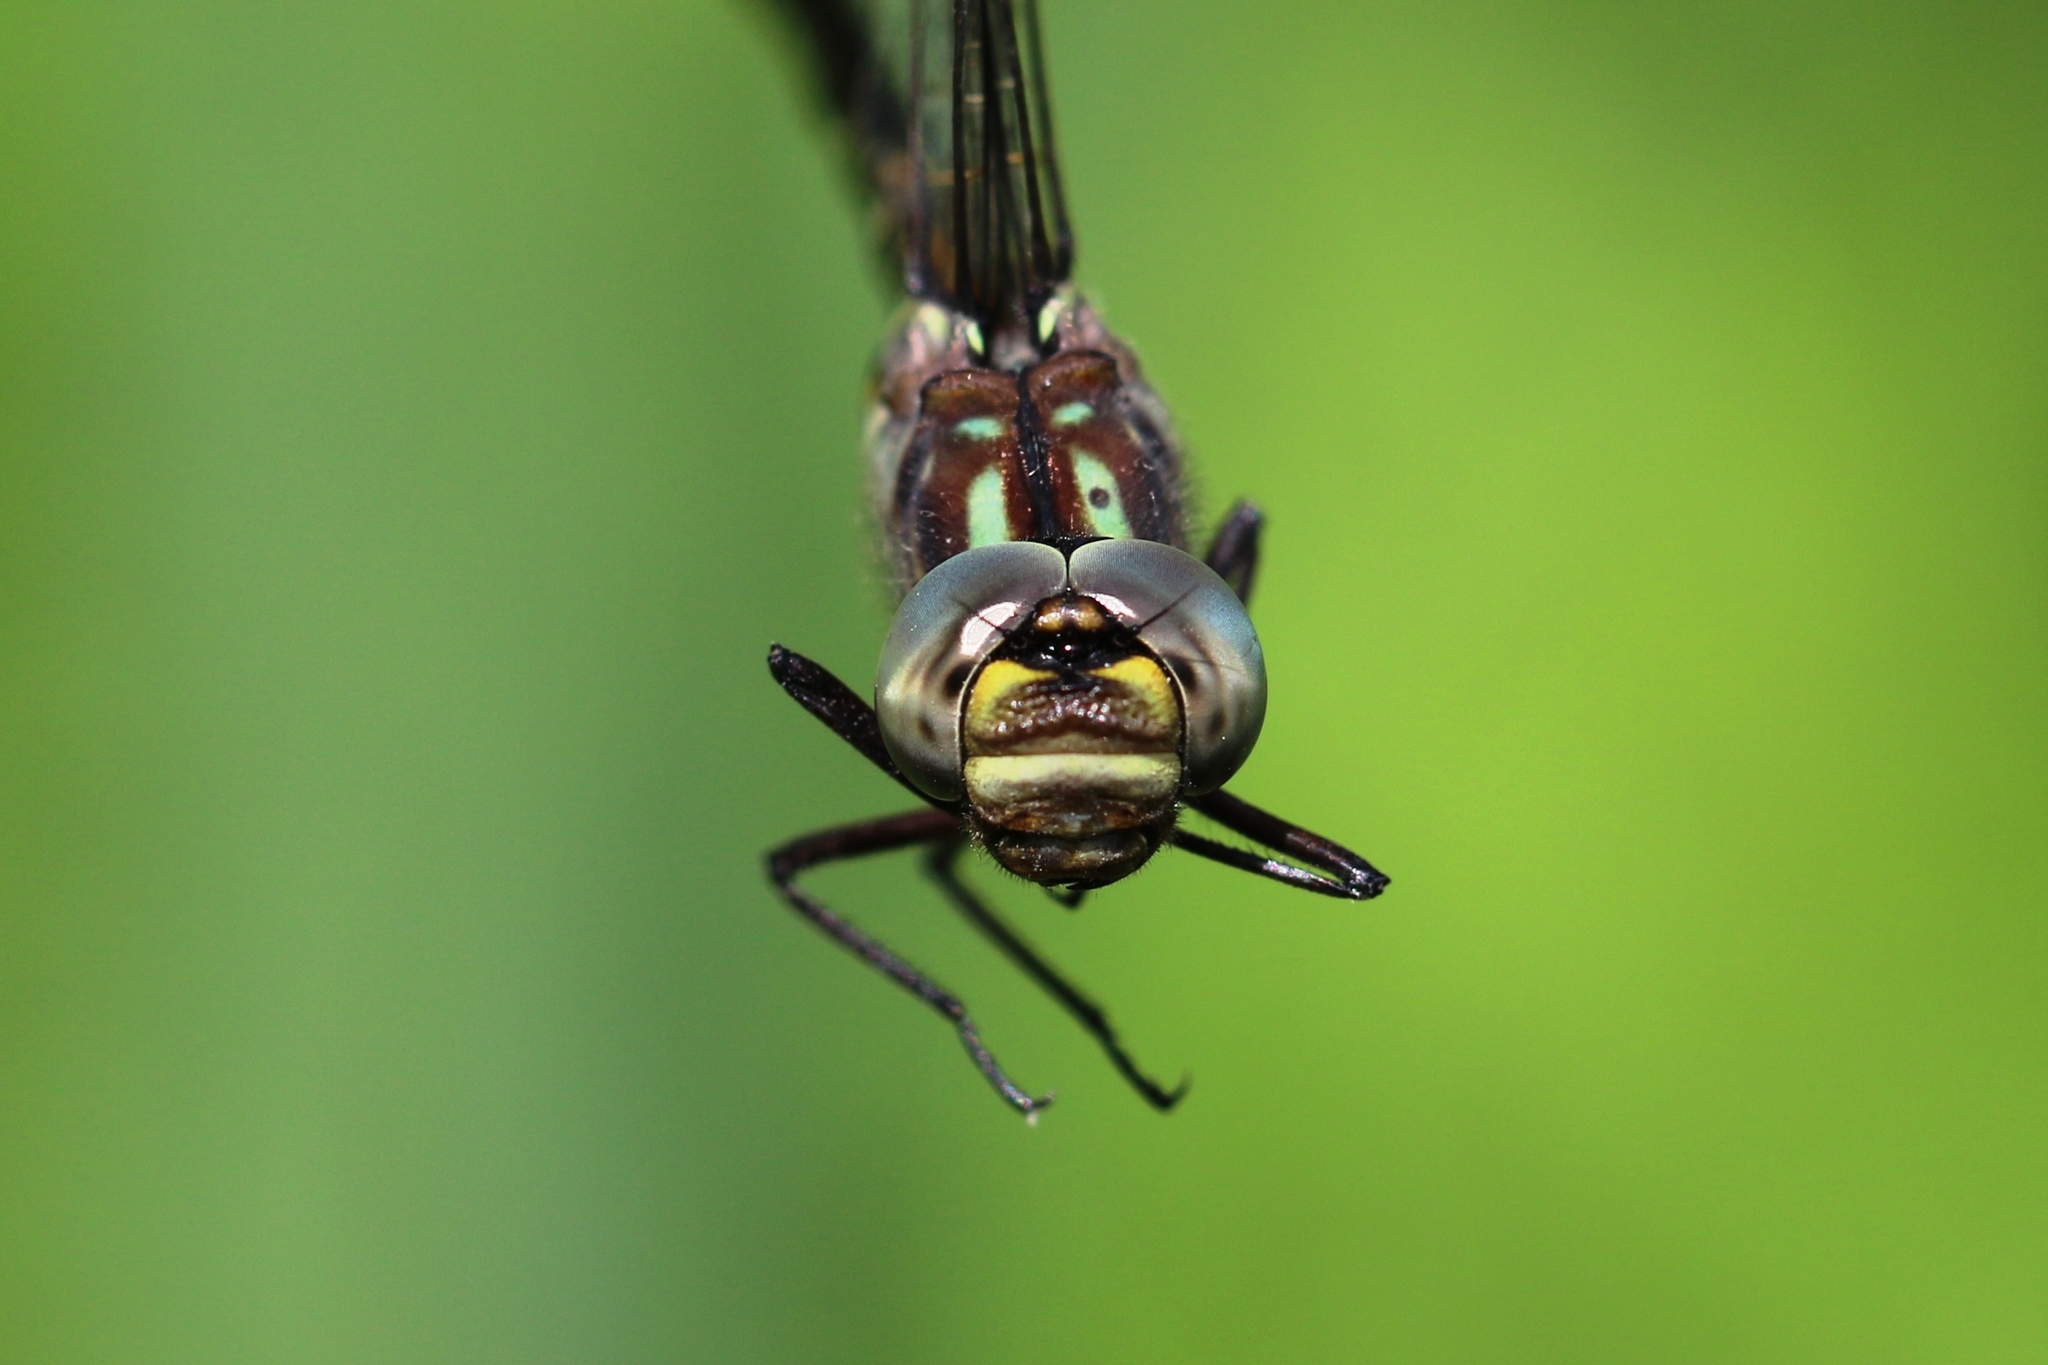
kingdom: Animalia
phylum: Arthropoda
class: Insecta
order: Odonata
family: Aeshnidae
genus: Gomphaeschna
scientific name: Gomphaeschna furcillata
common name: Harlequin darner
